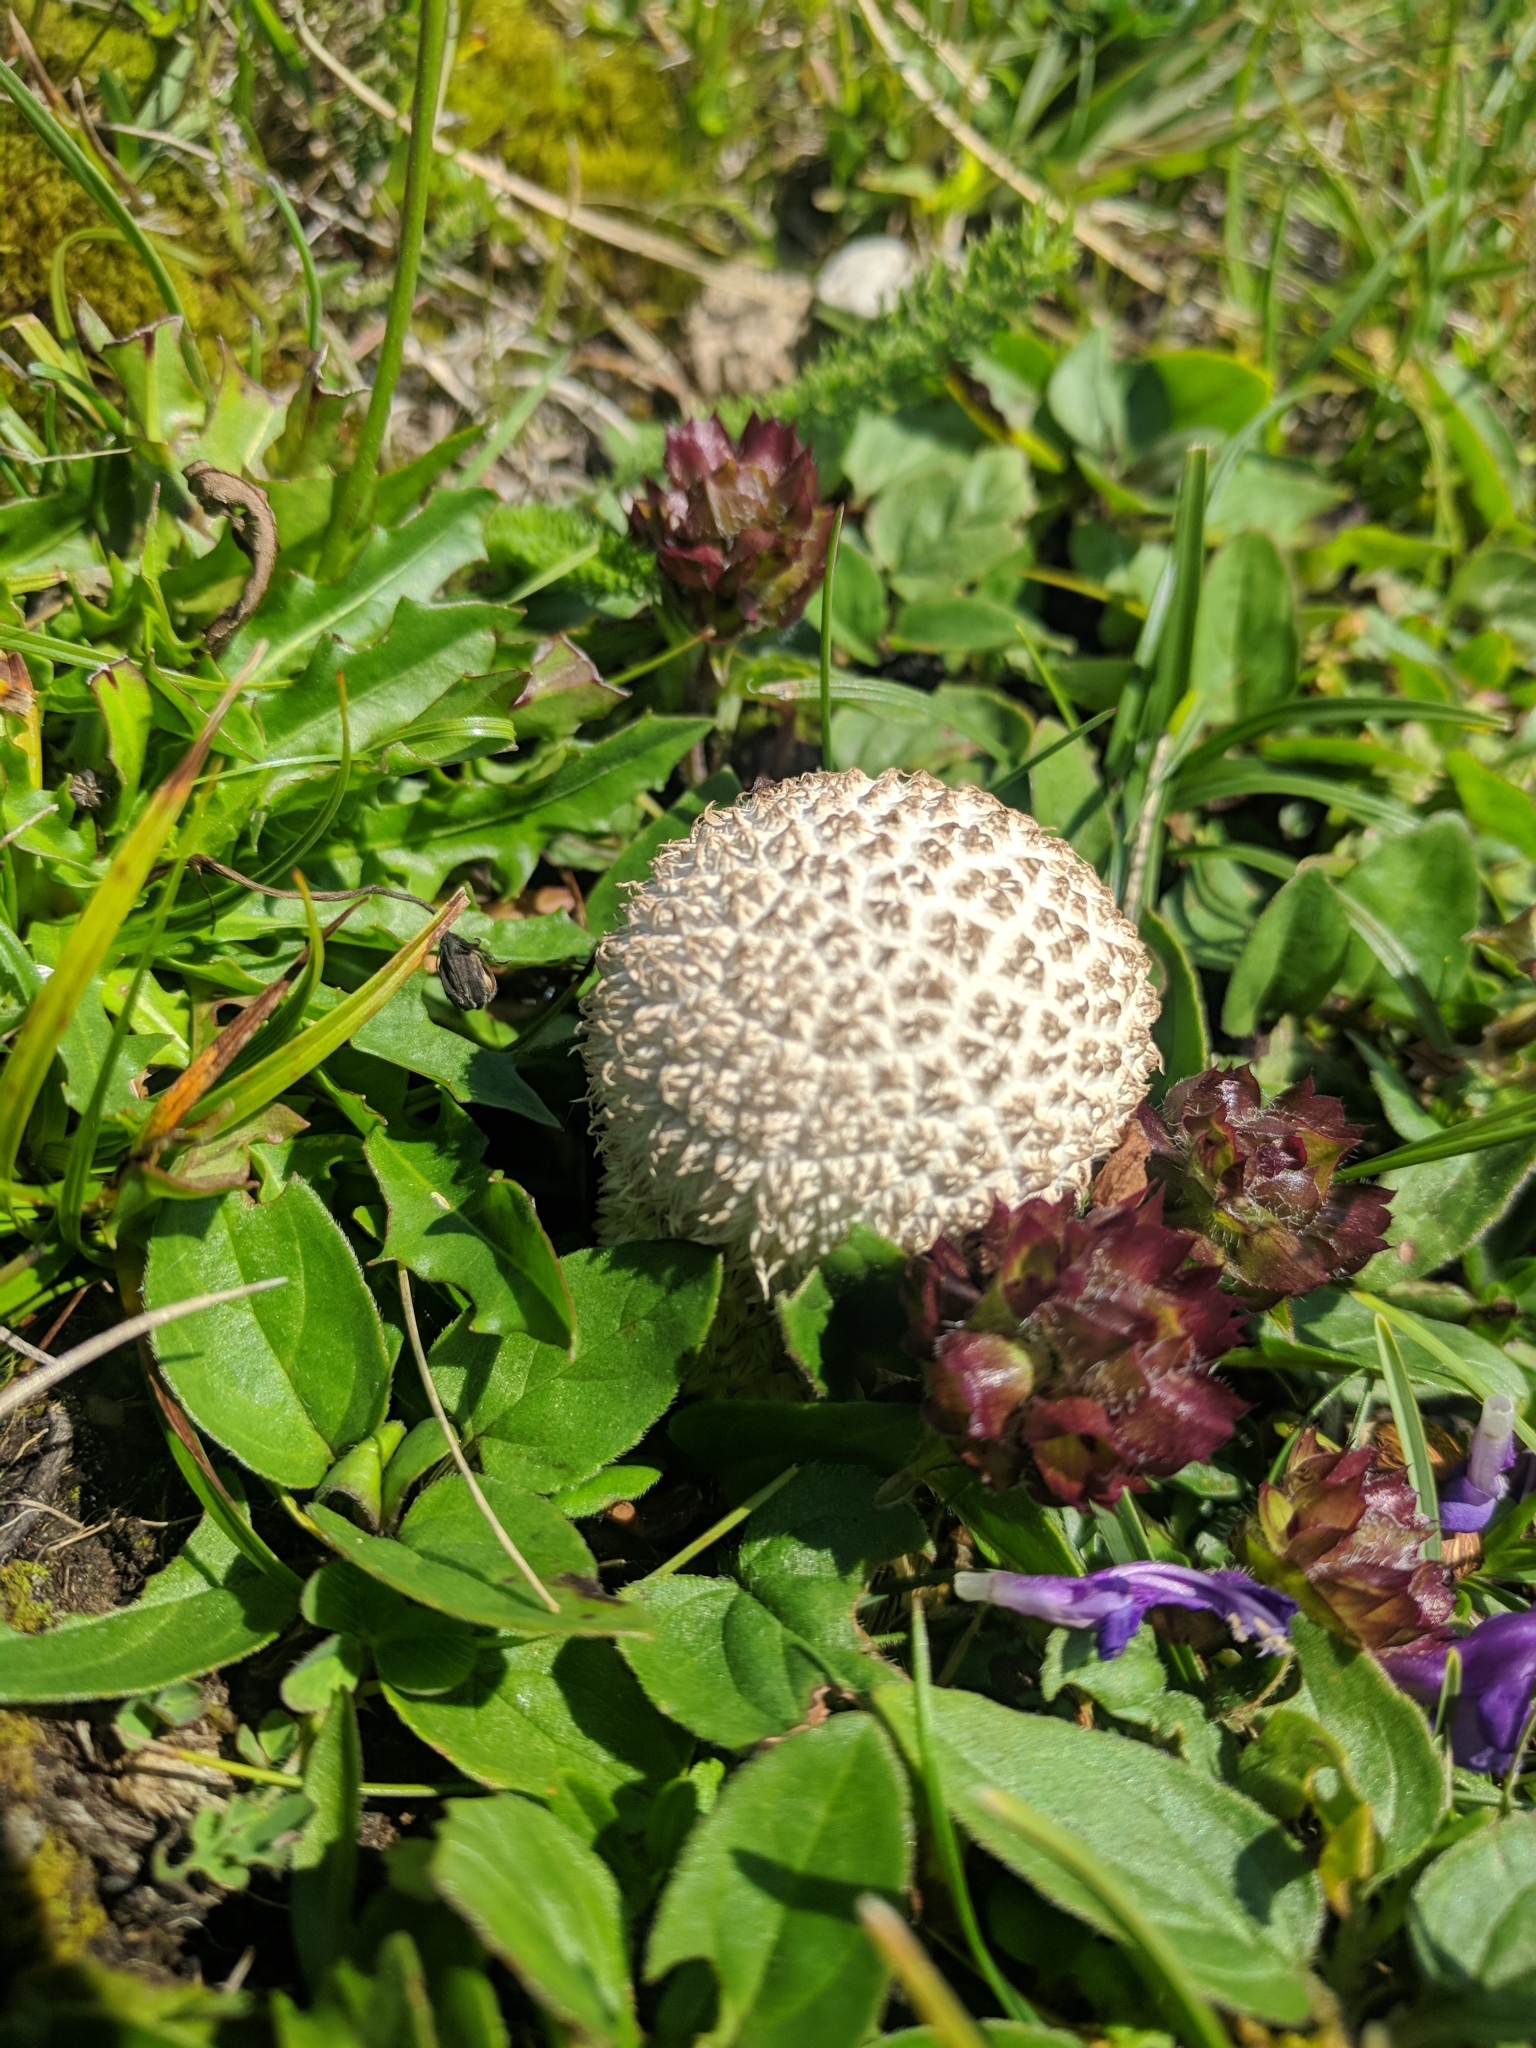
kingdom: Fungi
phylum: Basidiomycota
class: Agaricomycetes
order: Agaricales
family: Lycoperdaceae
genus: Lycoperdon
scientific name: Lycoperdon echinatum
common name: Hedgehog puffball
